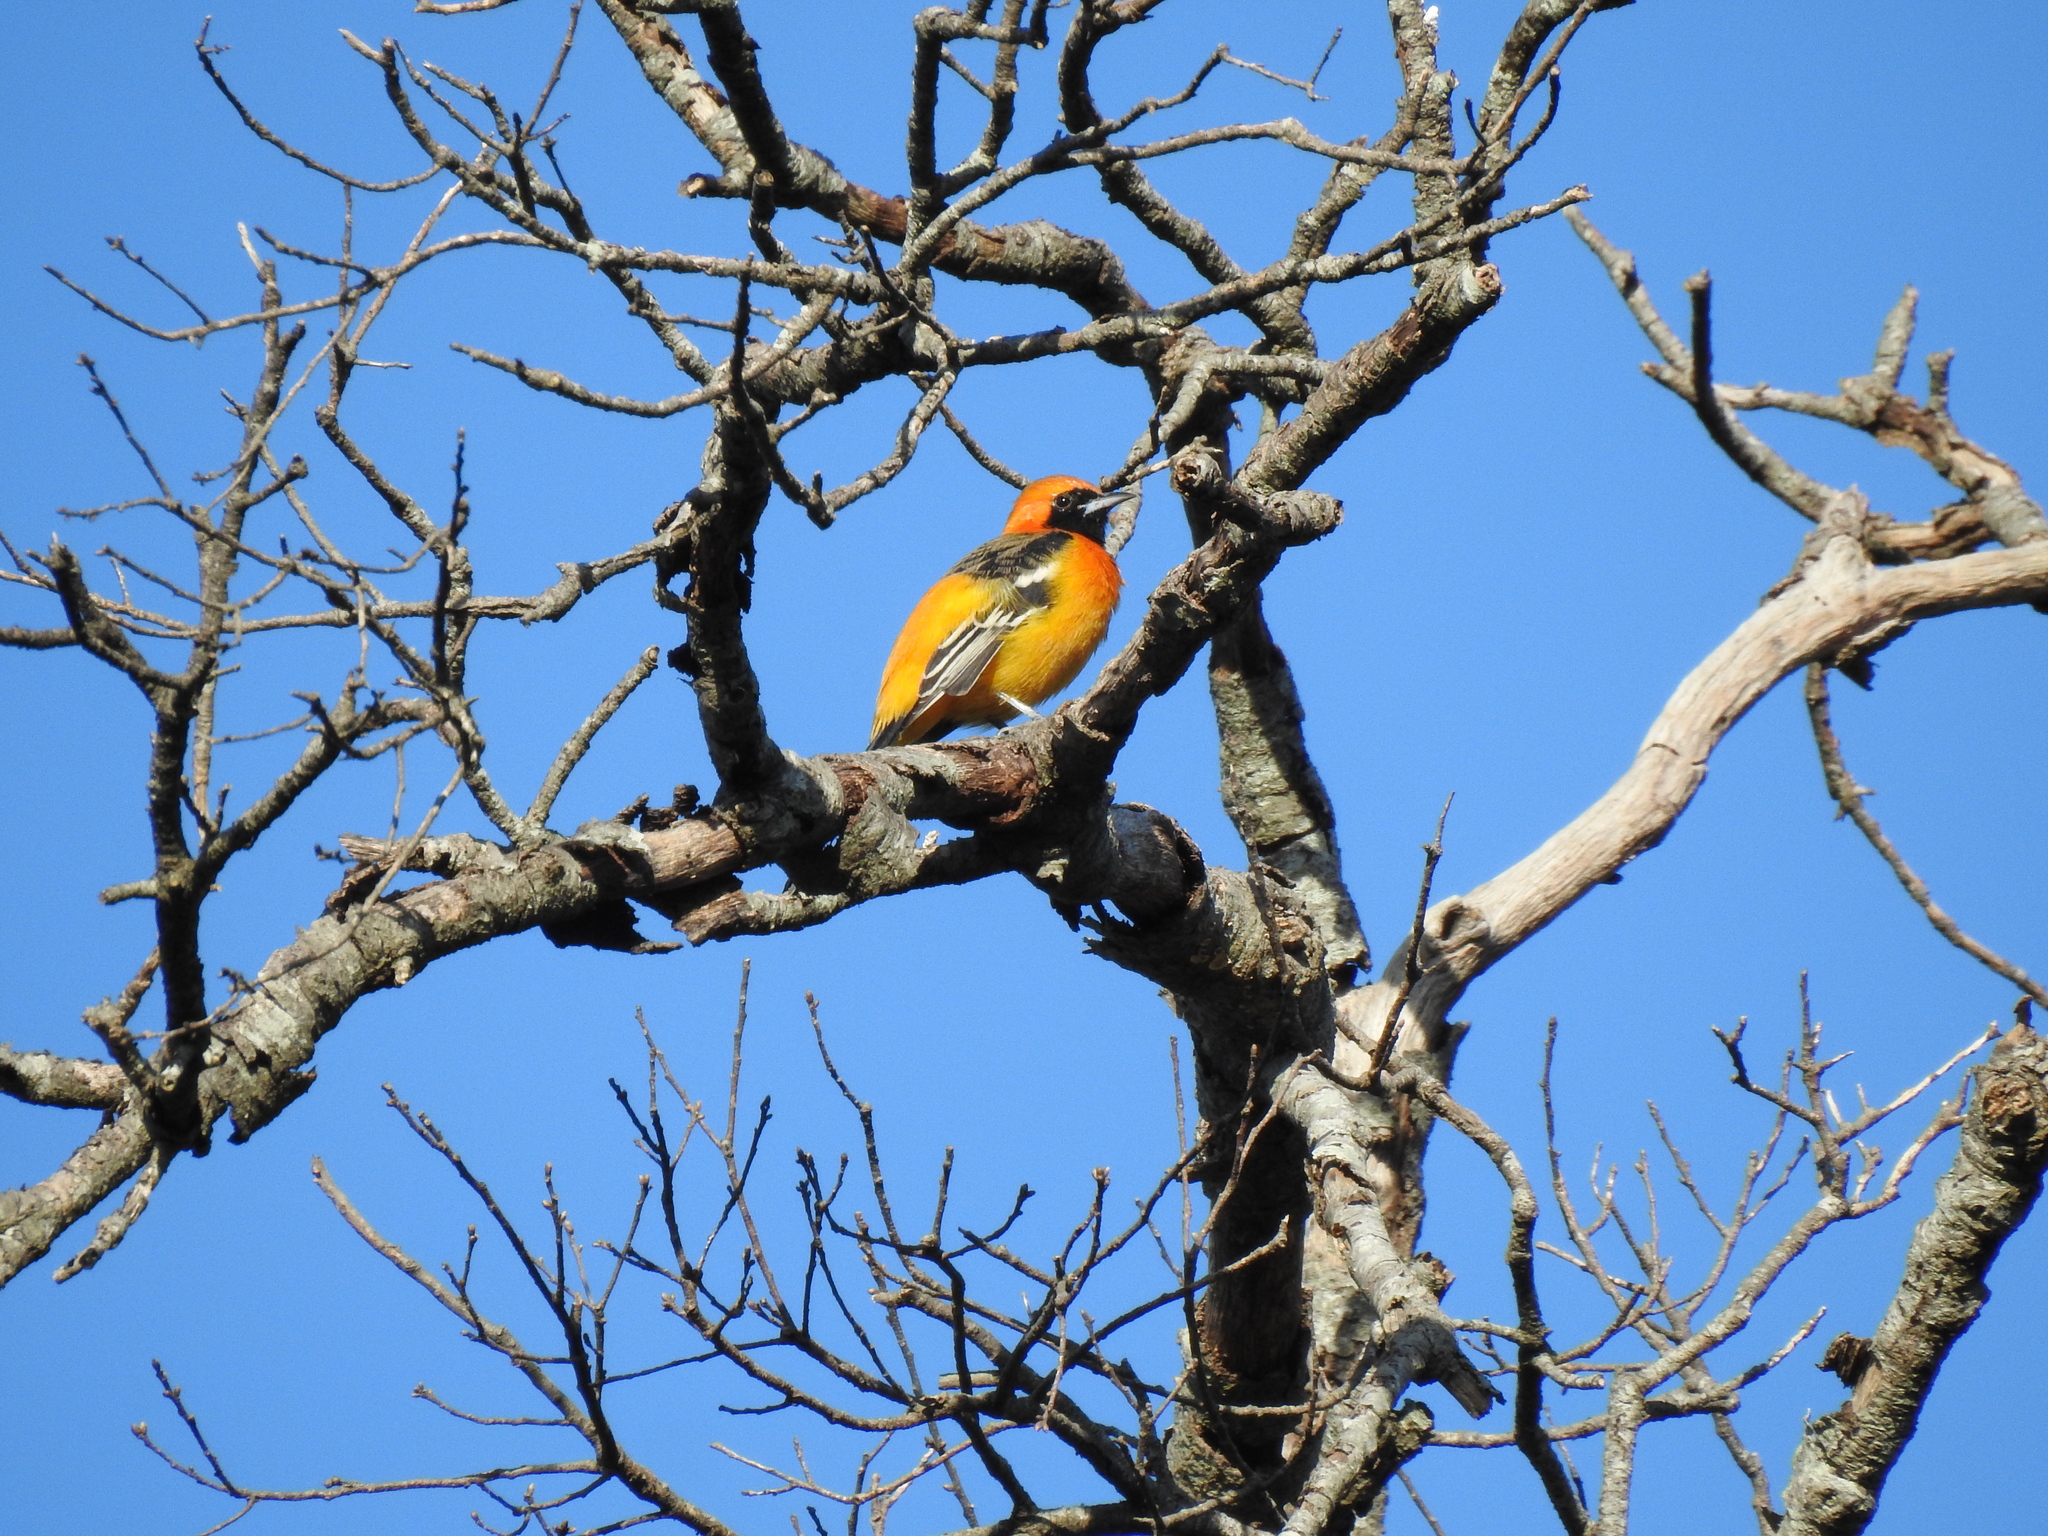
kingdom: Animalia
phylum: Chordata
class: Aves
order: Passeriformes
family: Icteridae
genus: Icterus
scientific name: Icterus cucullatus
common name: Hooded oriole
